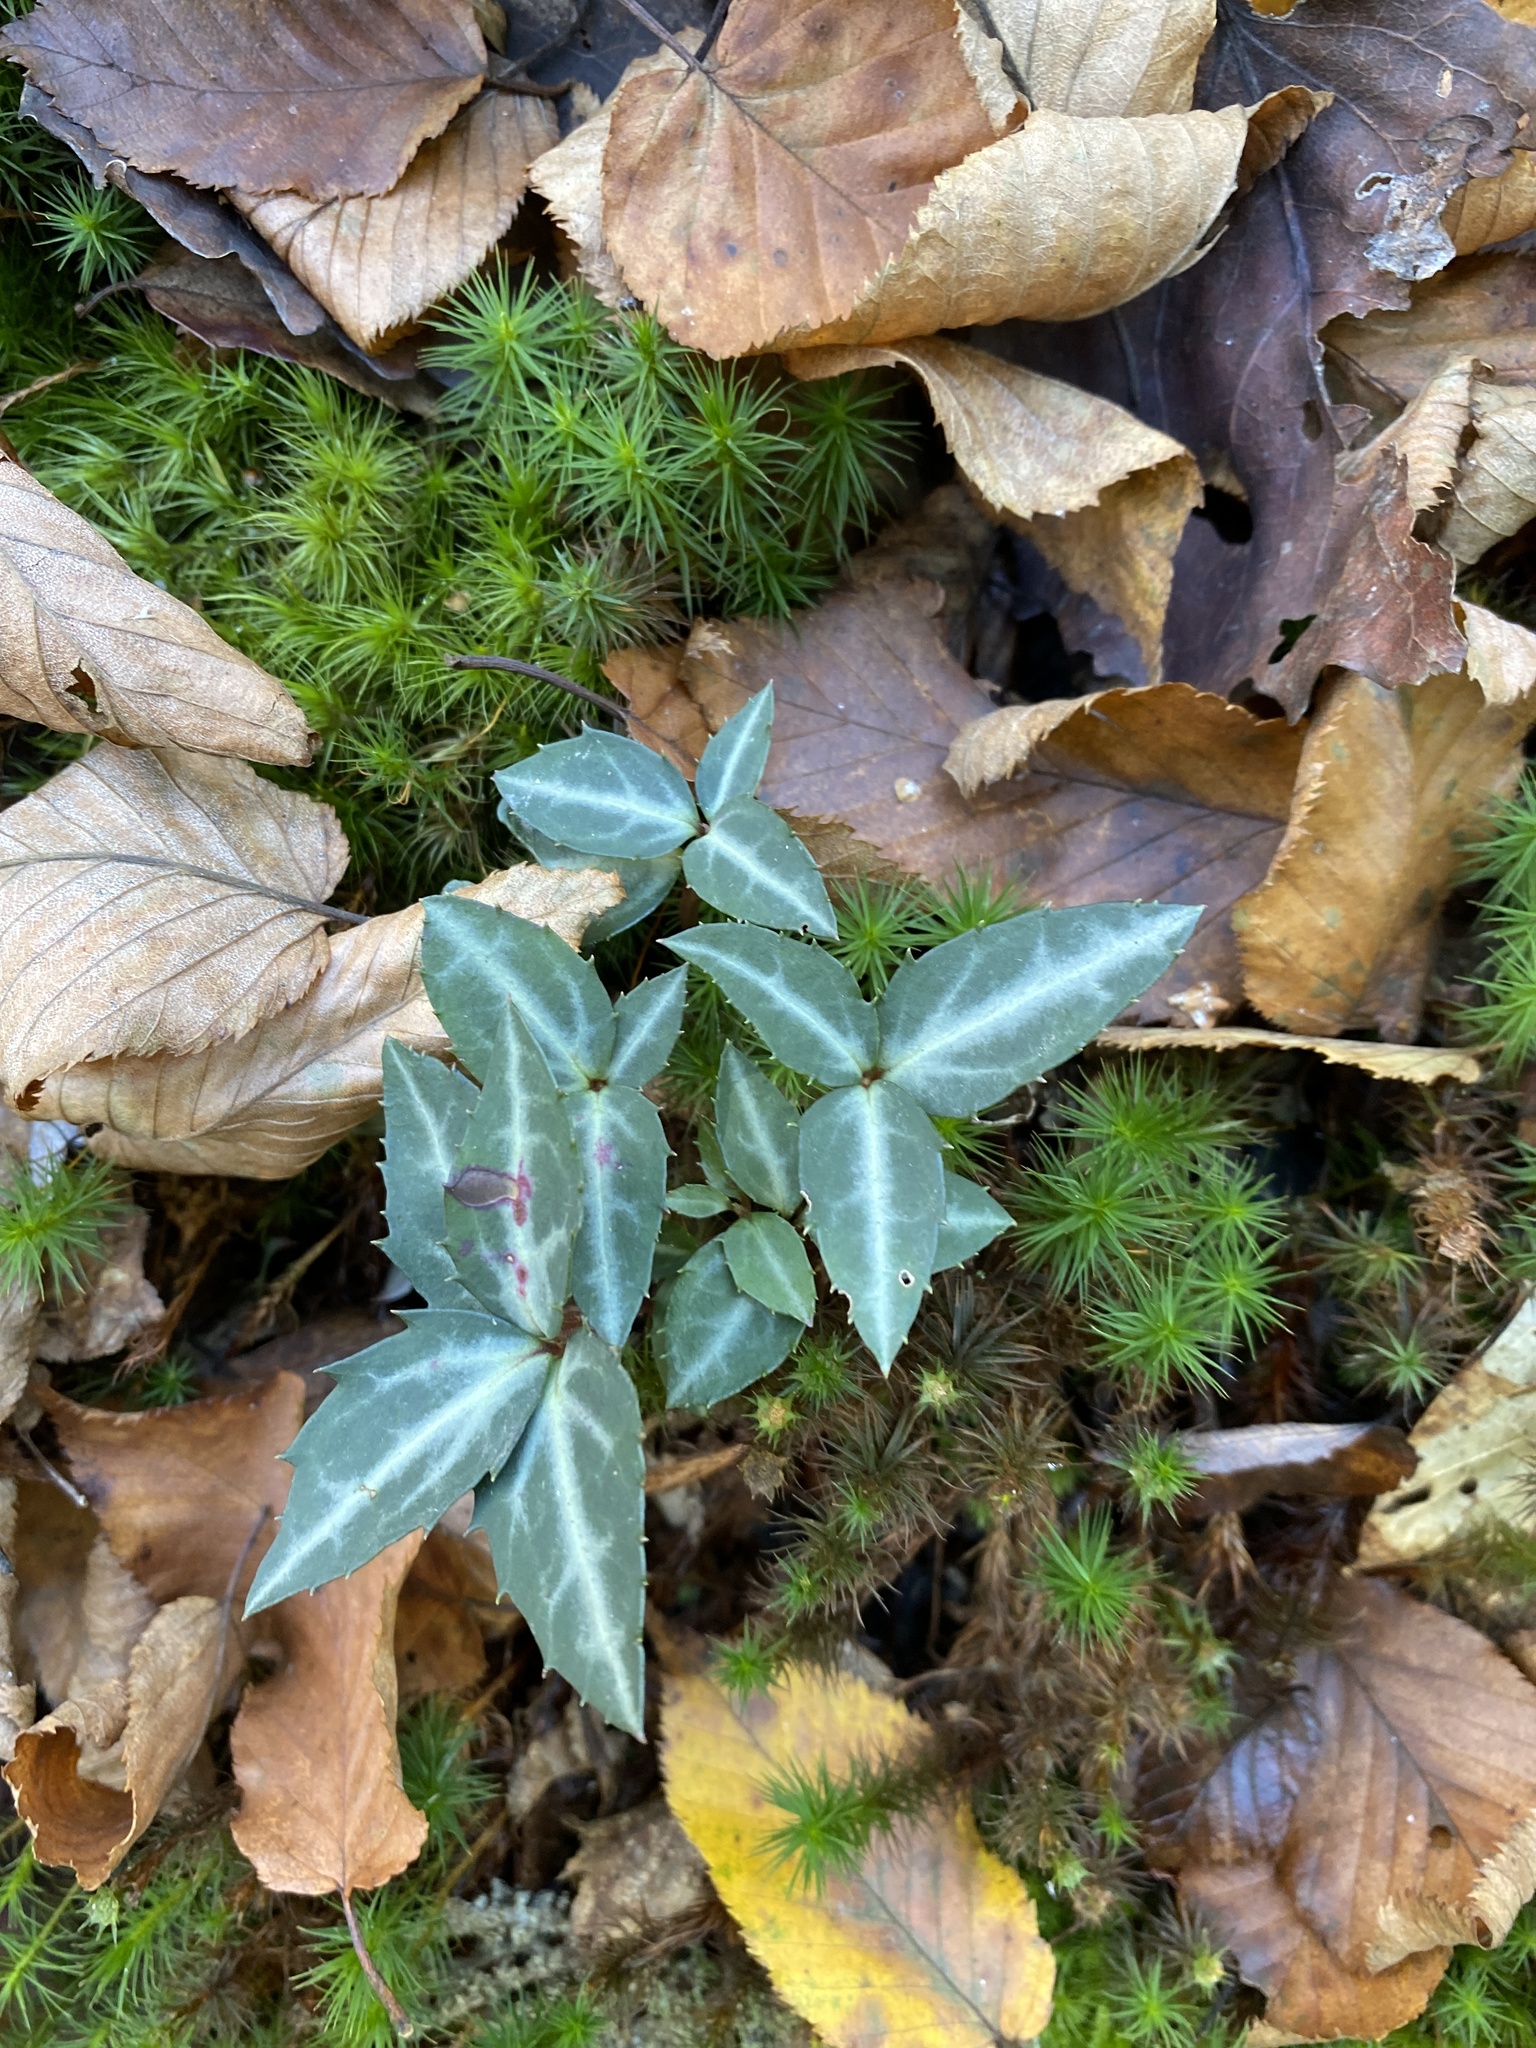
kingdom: Plantae
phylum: Tracheophyta
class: Magnoliopsida
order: Ericales
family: Ericaceae
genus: Chimaphila
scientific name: Chimaphila maculata
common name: Spotted pipsissewa
